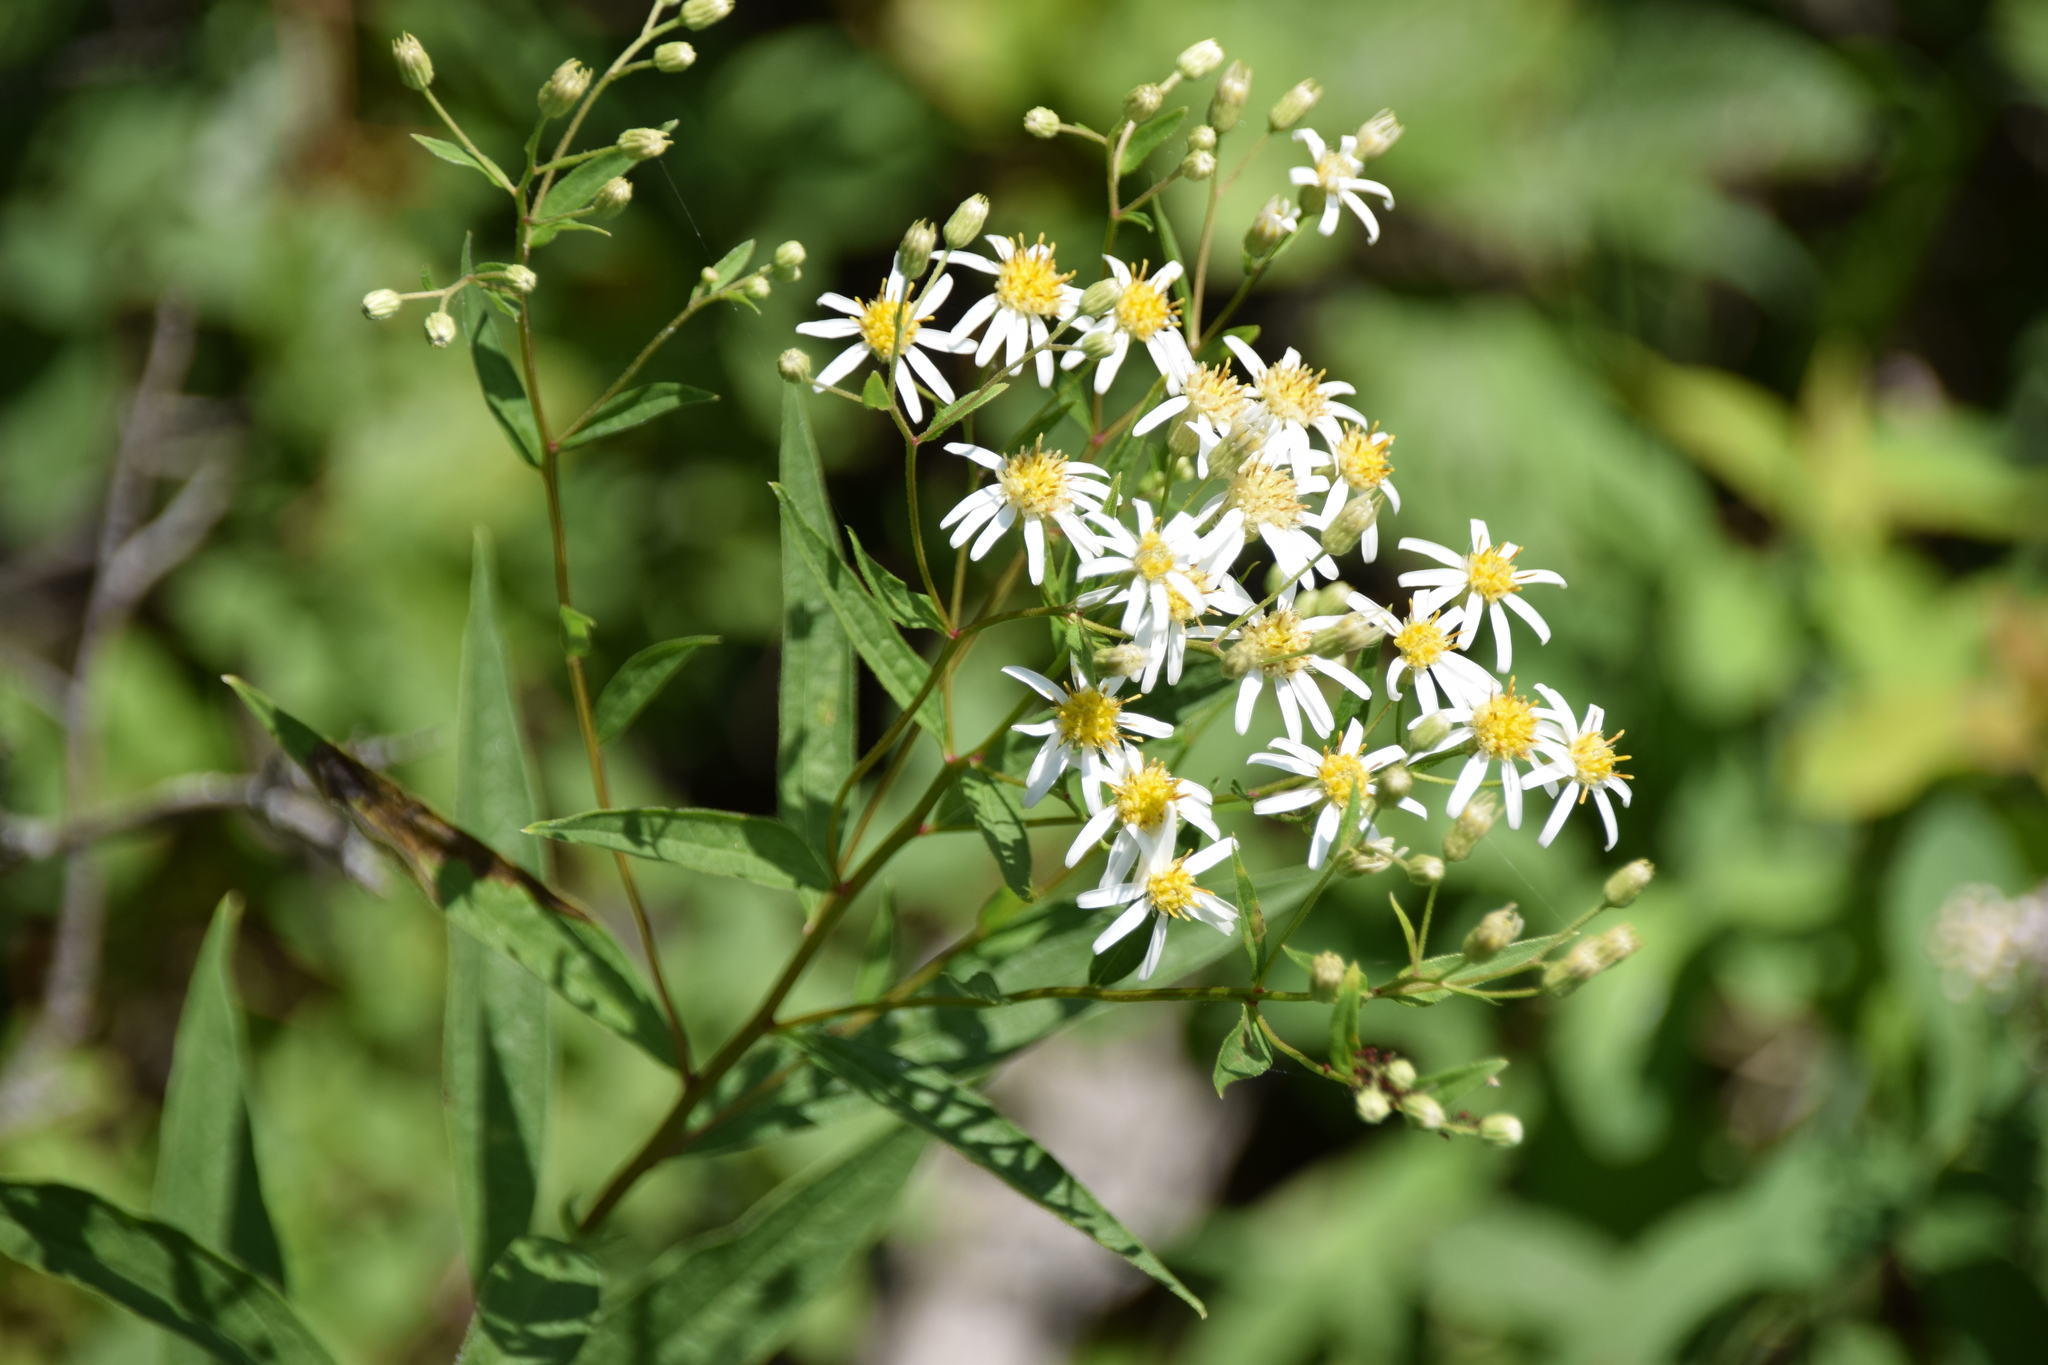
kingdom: Plantae
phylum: Tracheophyta
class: Magnoliopsida
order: Asterales
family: Asteraceae
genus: Doellingeria
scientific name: Doellingeria umbellata
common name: Flat-top white aster
